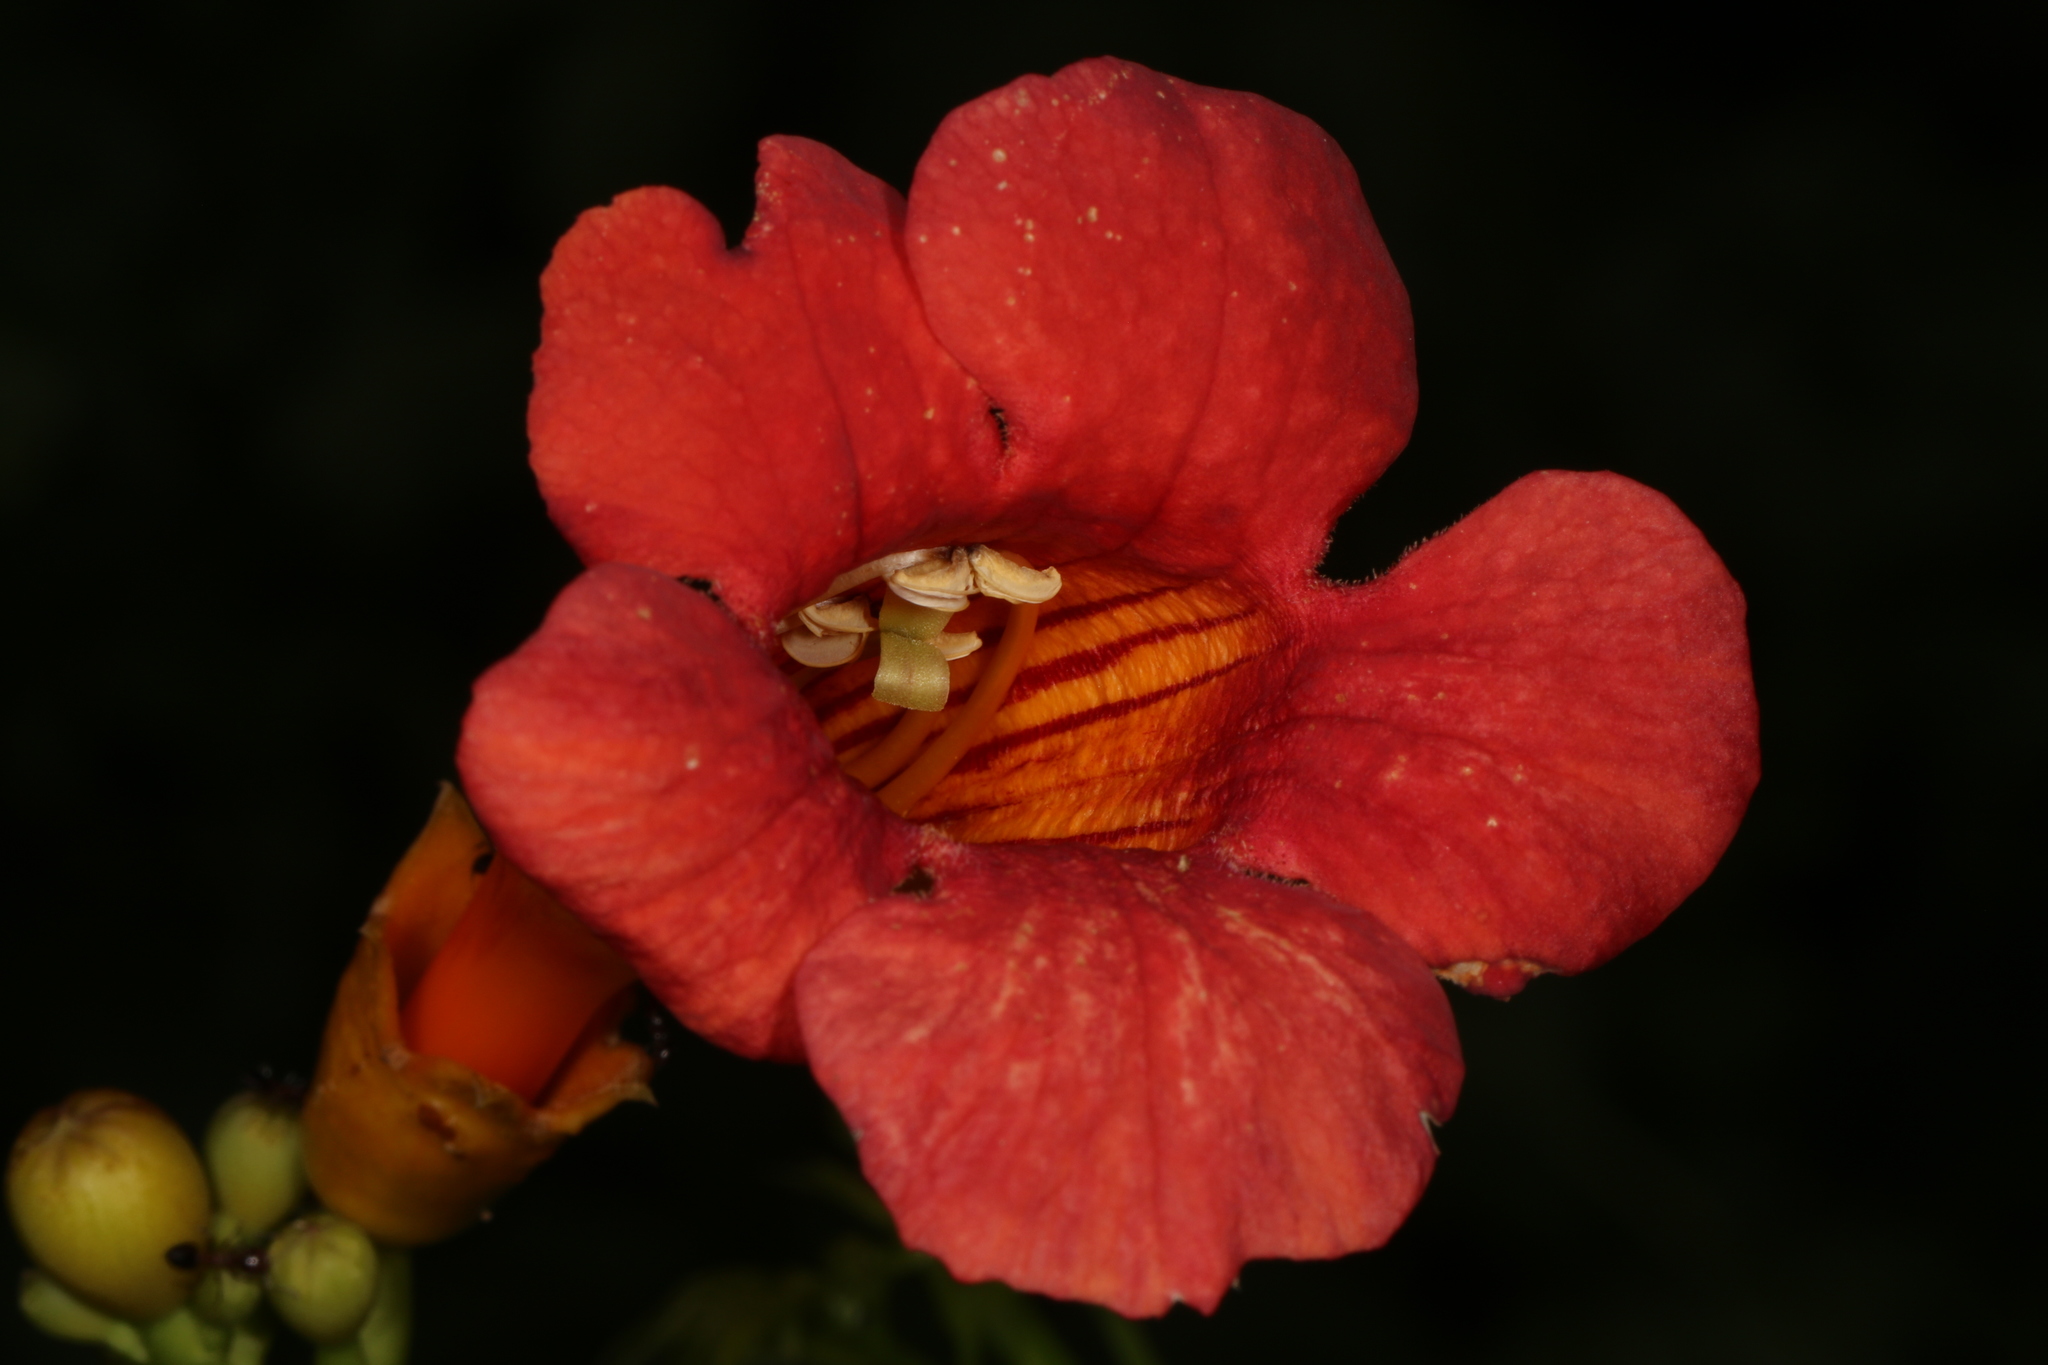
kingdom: Plantae
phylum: Tracheophyta
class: Magnoliopsida
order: Lamiales
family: Bignoniaceae
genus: Campsis
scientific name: Campsis radicans
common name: Trumpet-creeper
